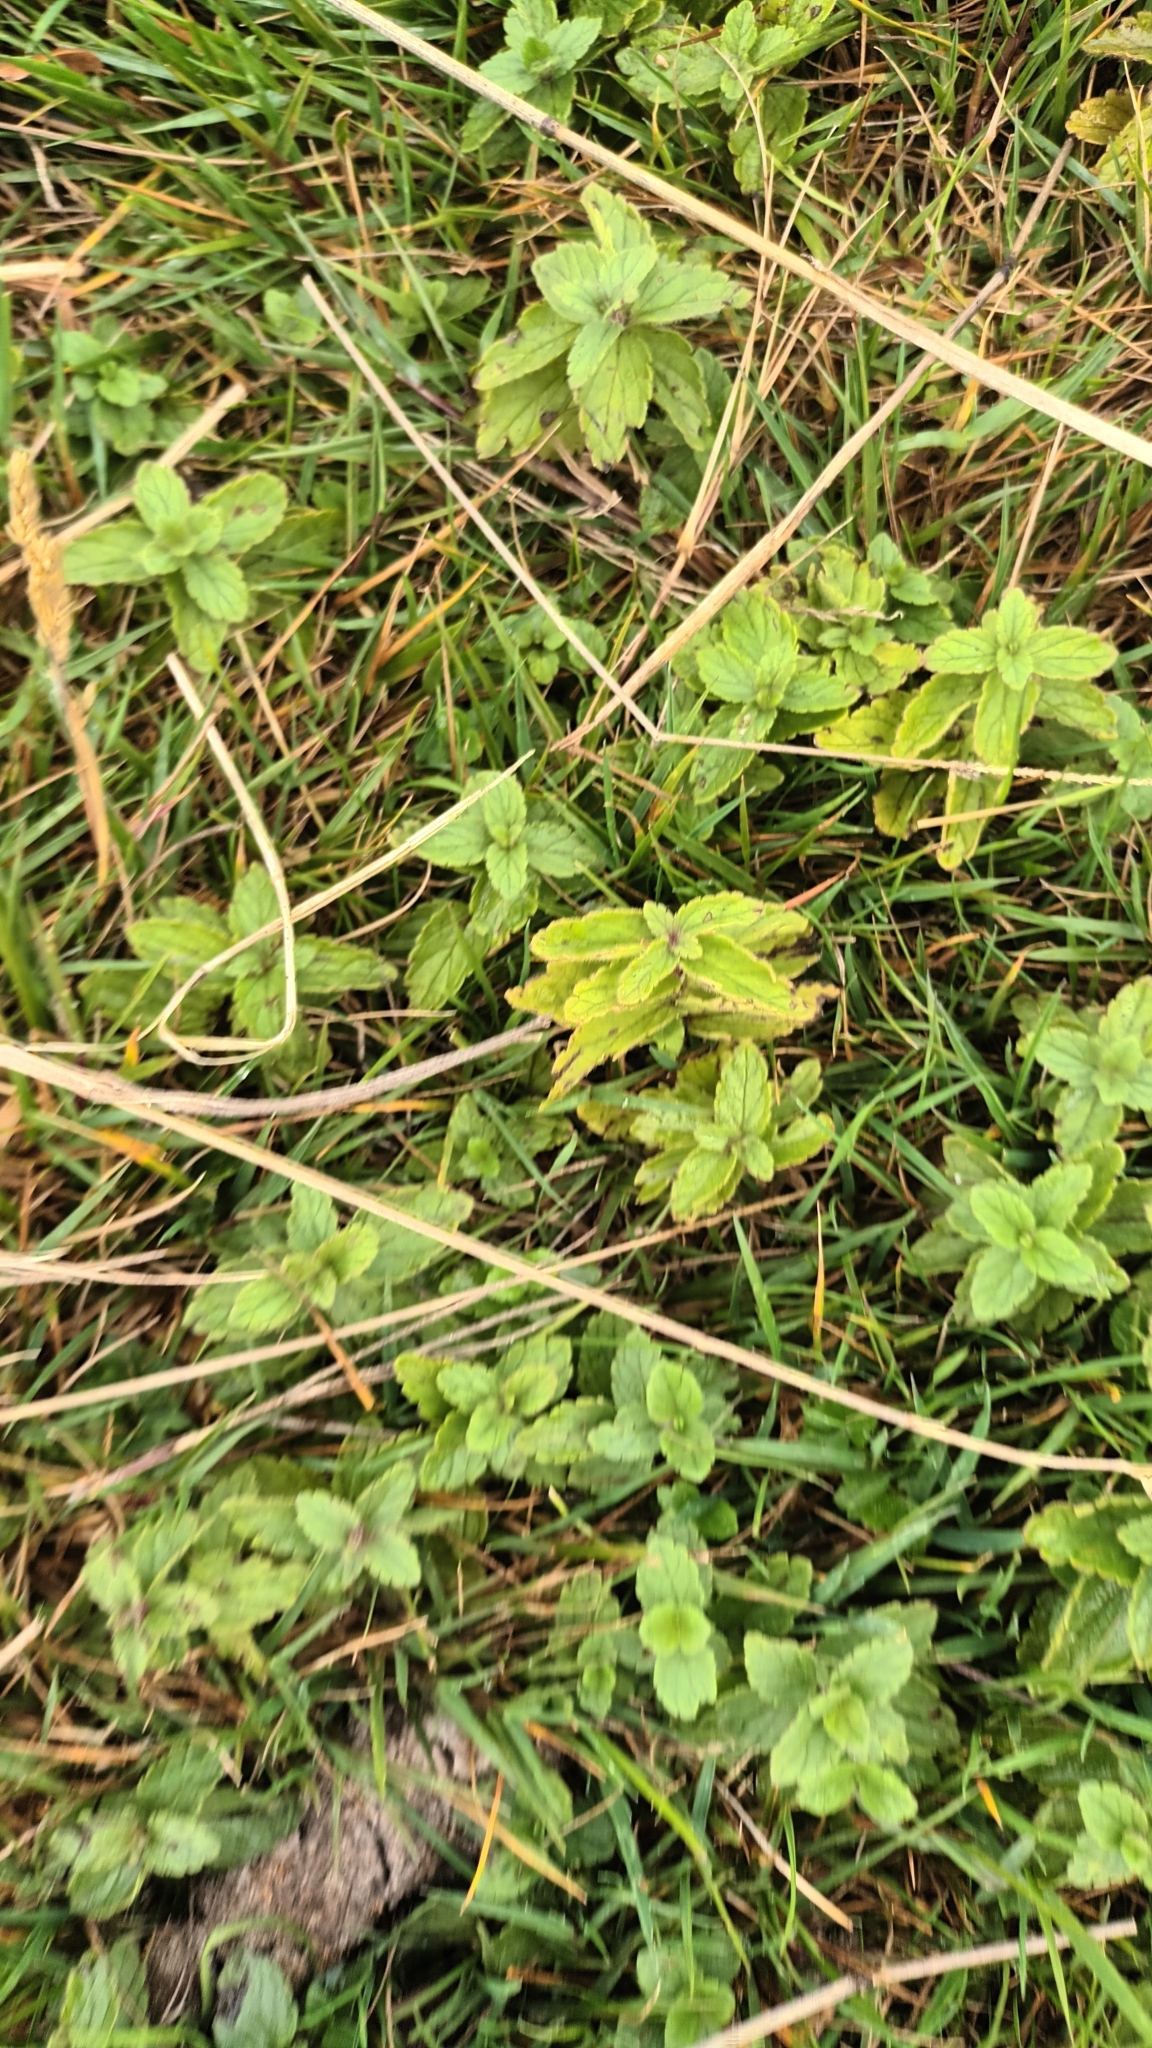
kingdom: Plantae
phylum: Tracheophyta
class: Magnoliopsida
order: Lamiales
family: Plantaginaceae
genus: Veronica
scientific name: Veronica chamaedrys
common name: Germander speedwell
